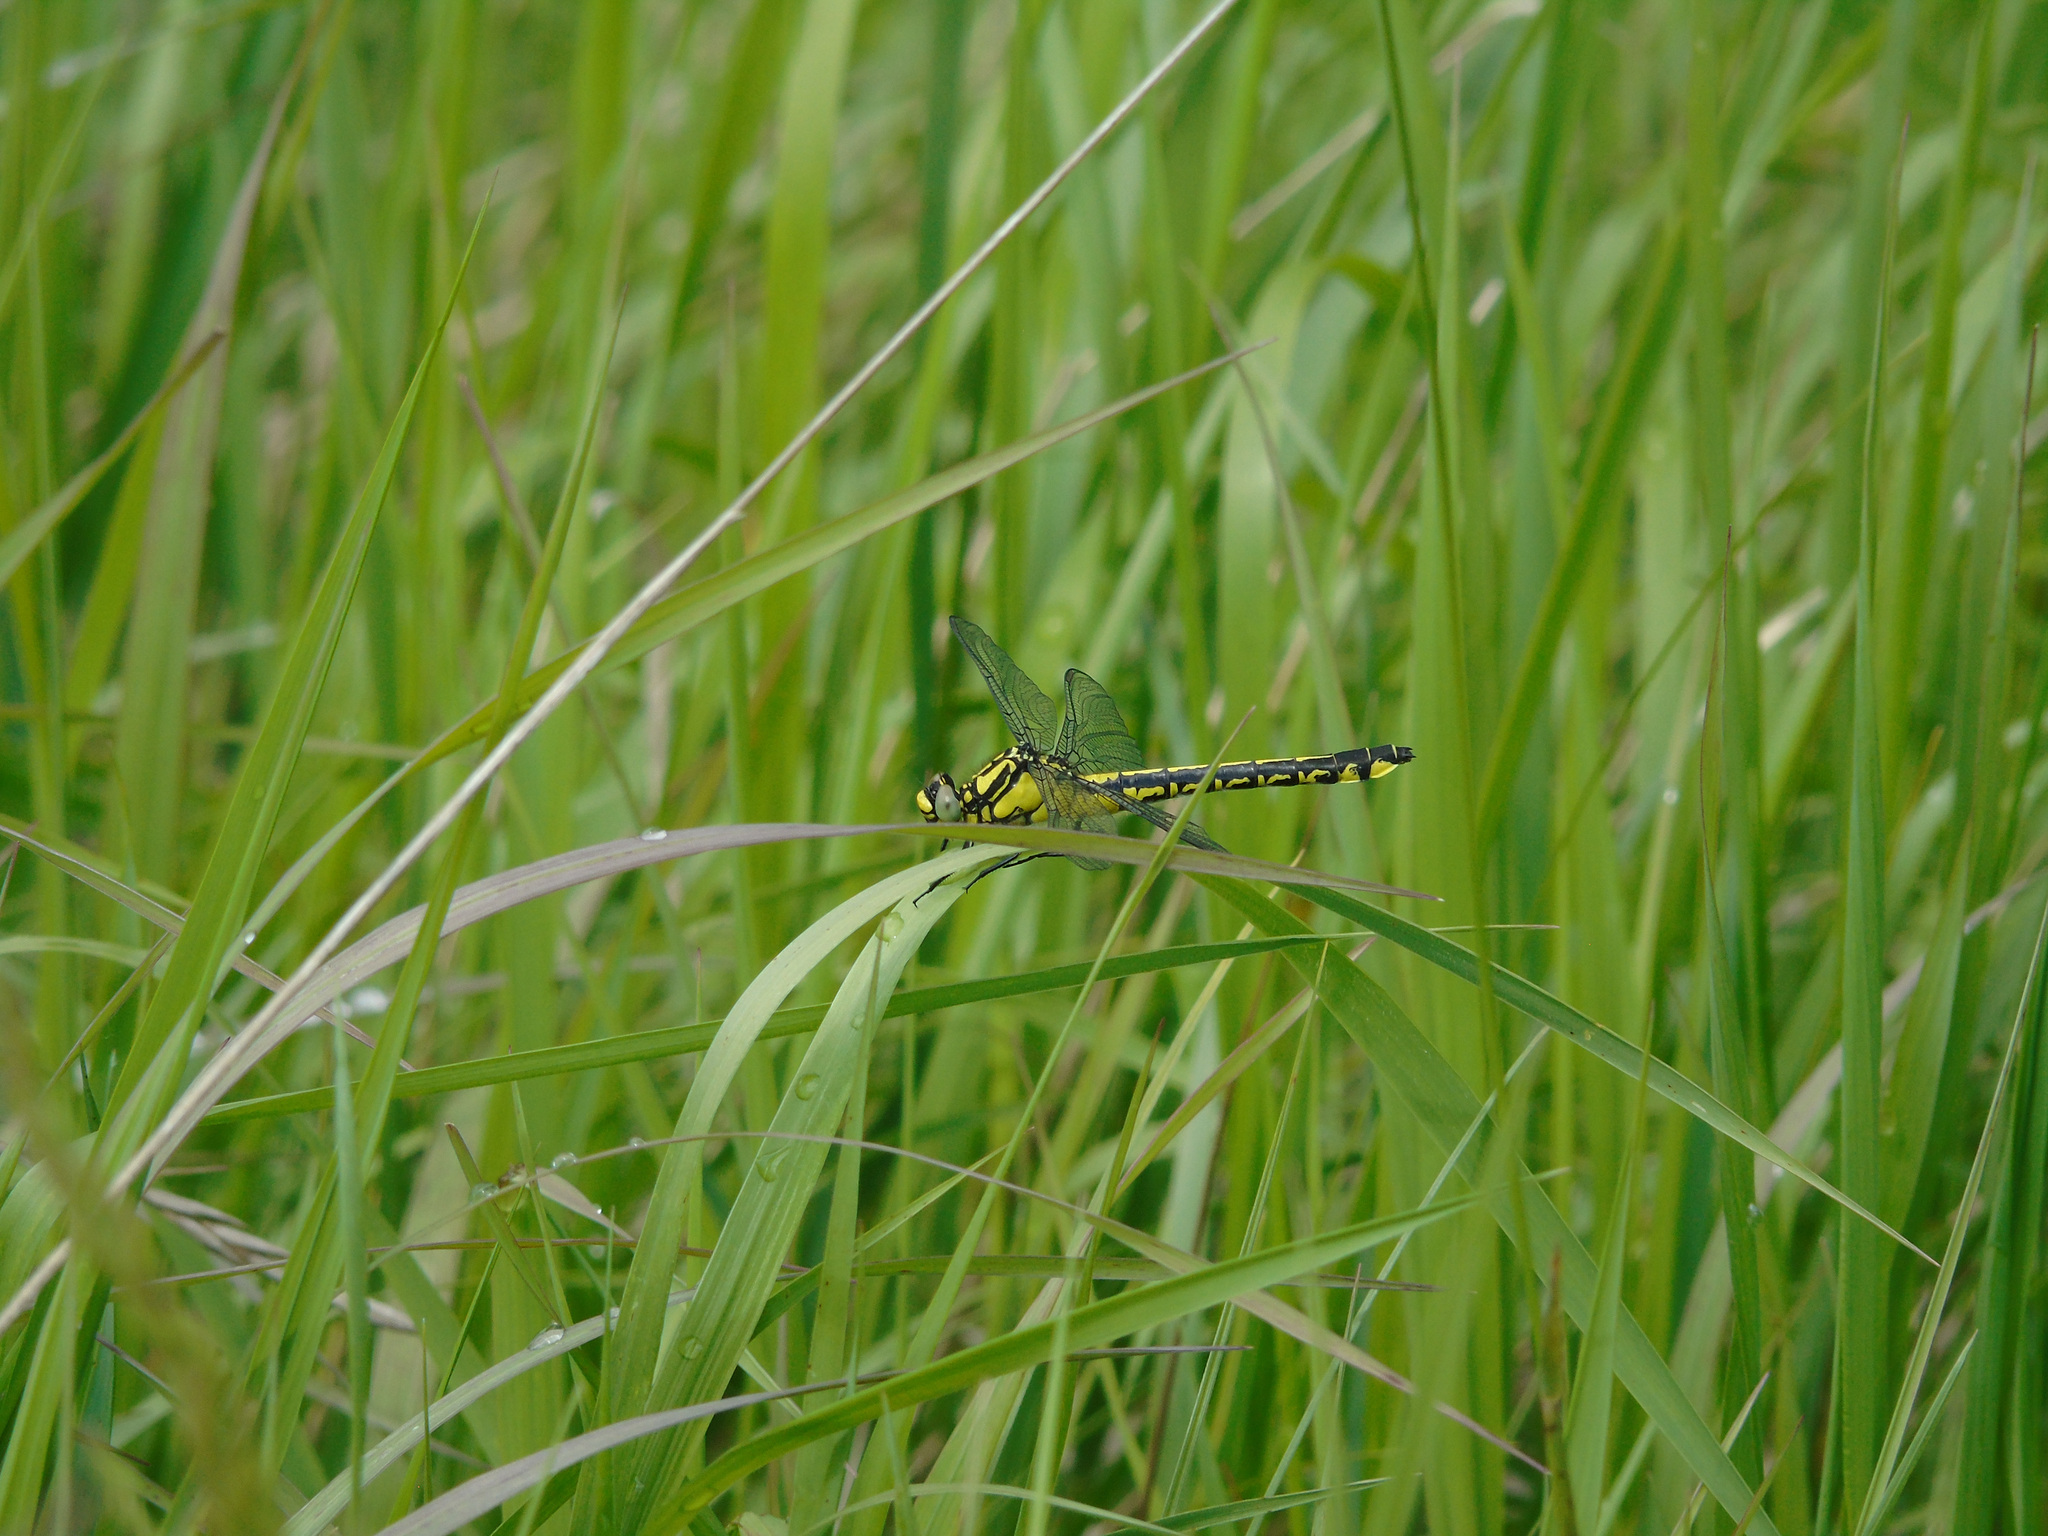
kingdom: Animalia
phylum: Arthropoda
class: Insecta
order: Odonata
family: Gomphidae
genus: Gomphus
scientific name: Gomphus vulgatissimus
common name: Club-tailed dragonfly
